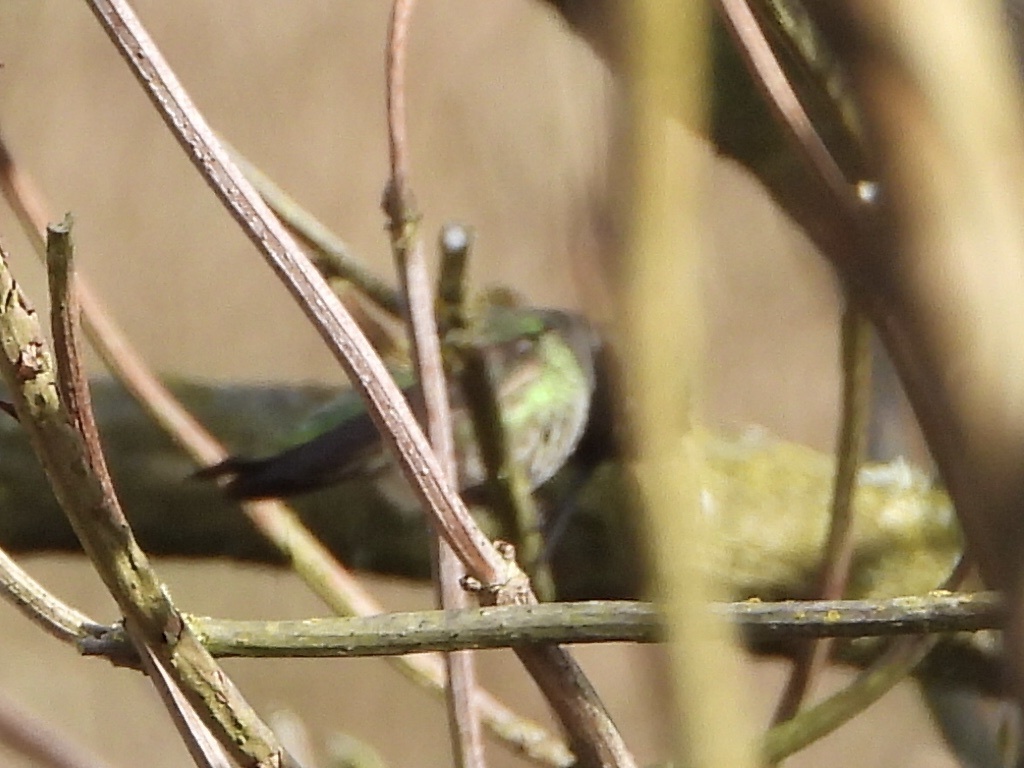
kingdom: Animalia
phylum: Chordata
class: Aves
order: Apodiformes
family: Trochilidae
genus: Calypte
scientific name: Calypte anna
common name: Anna's hummingbird
